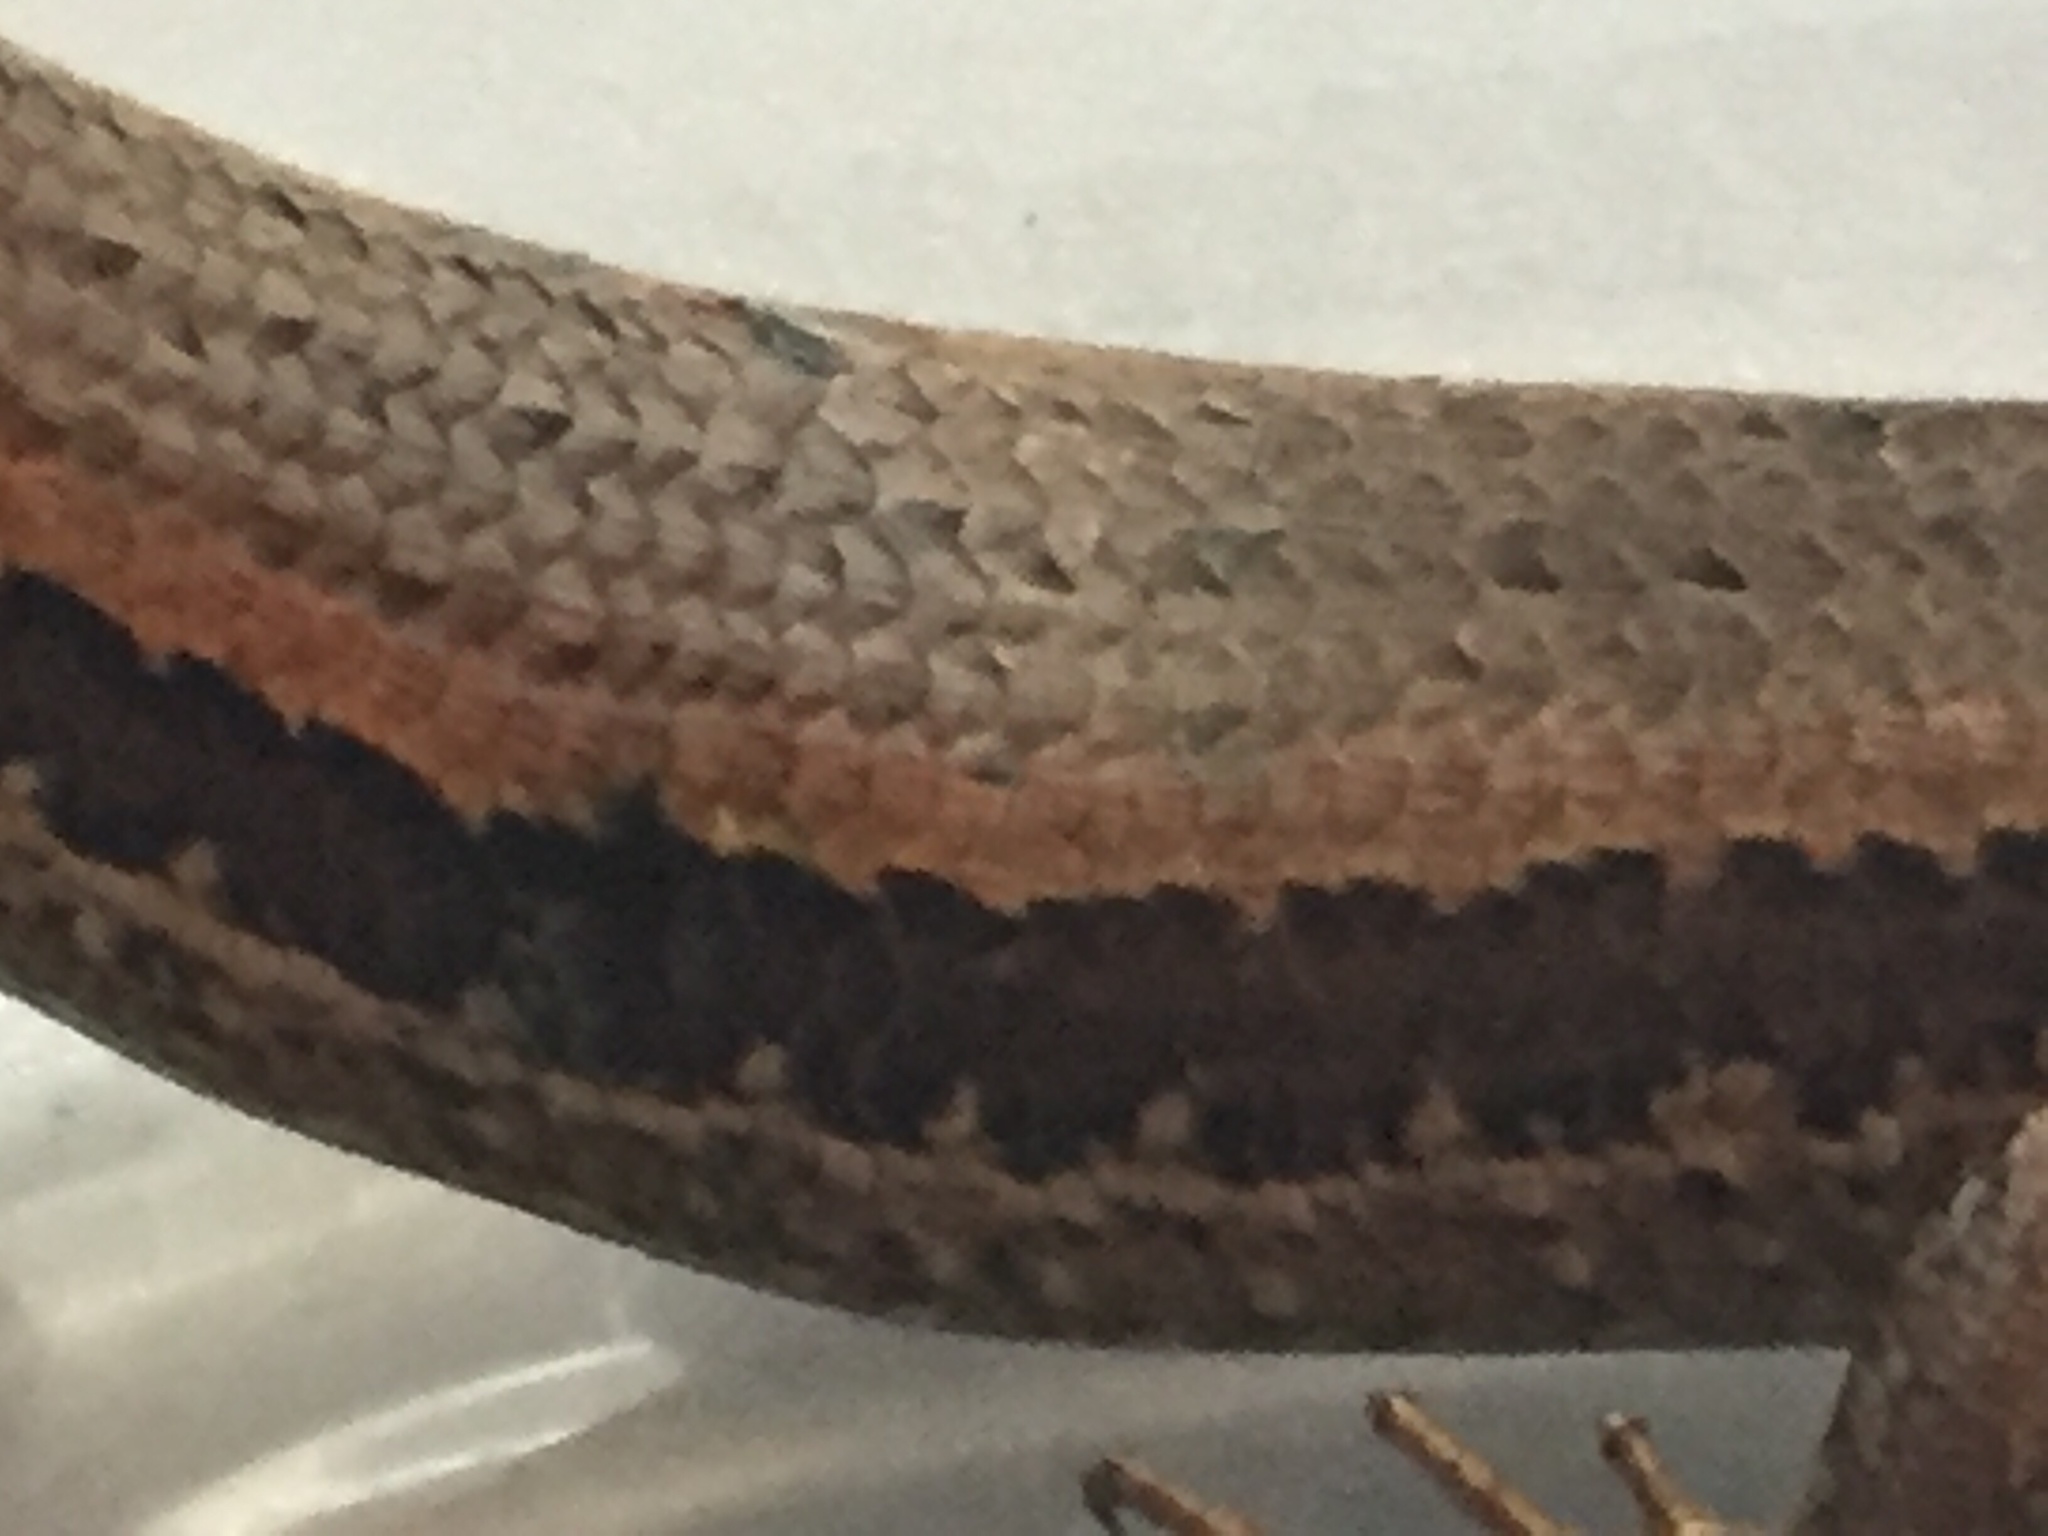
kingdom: Animalia
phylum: Chordata
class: Squamata
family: Scincidae
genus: Oligosoma
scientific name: Oligosoma polychroma
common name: Common new zealand skink
